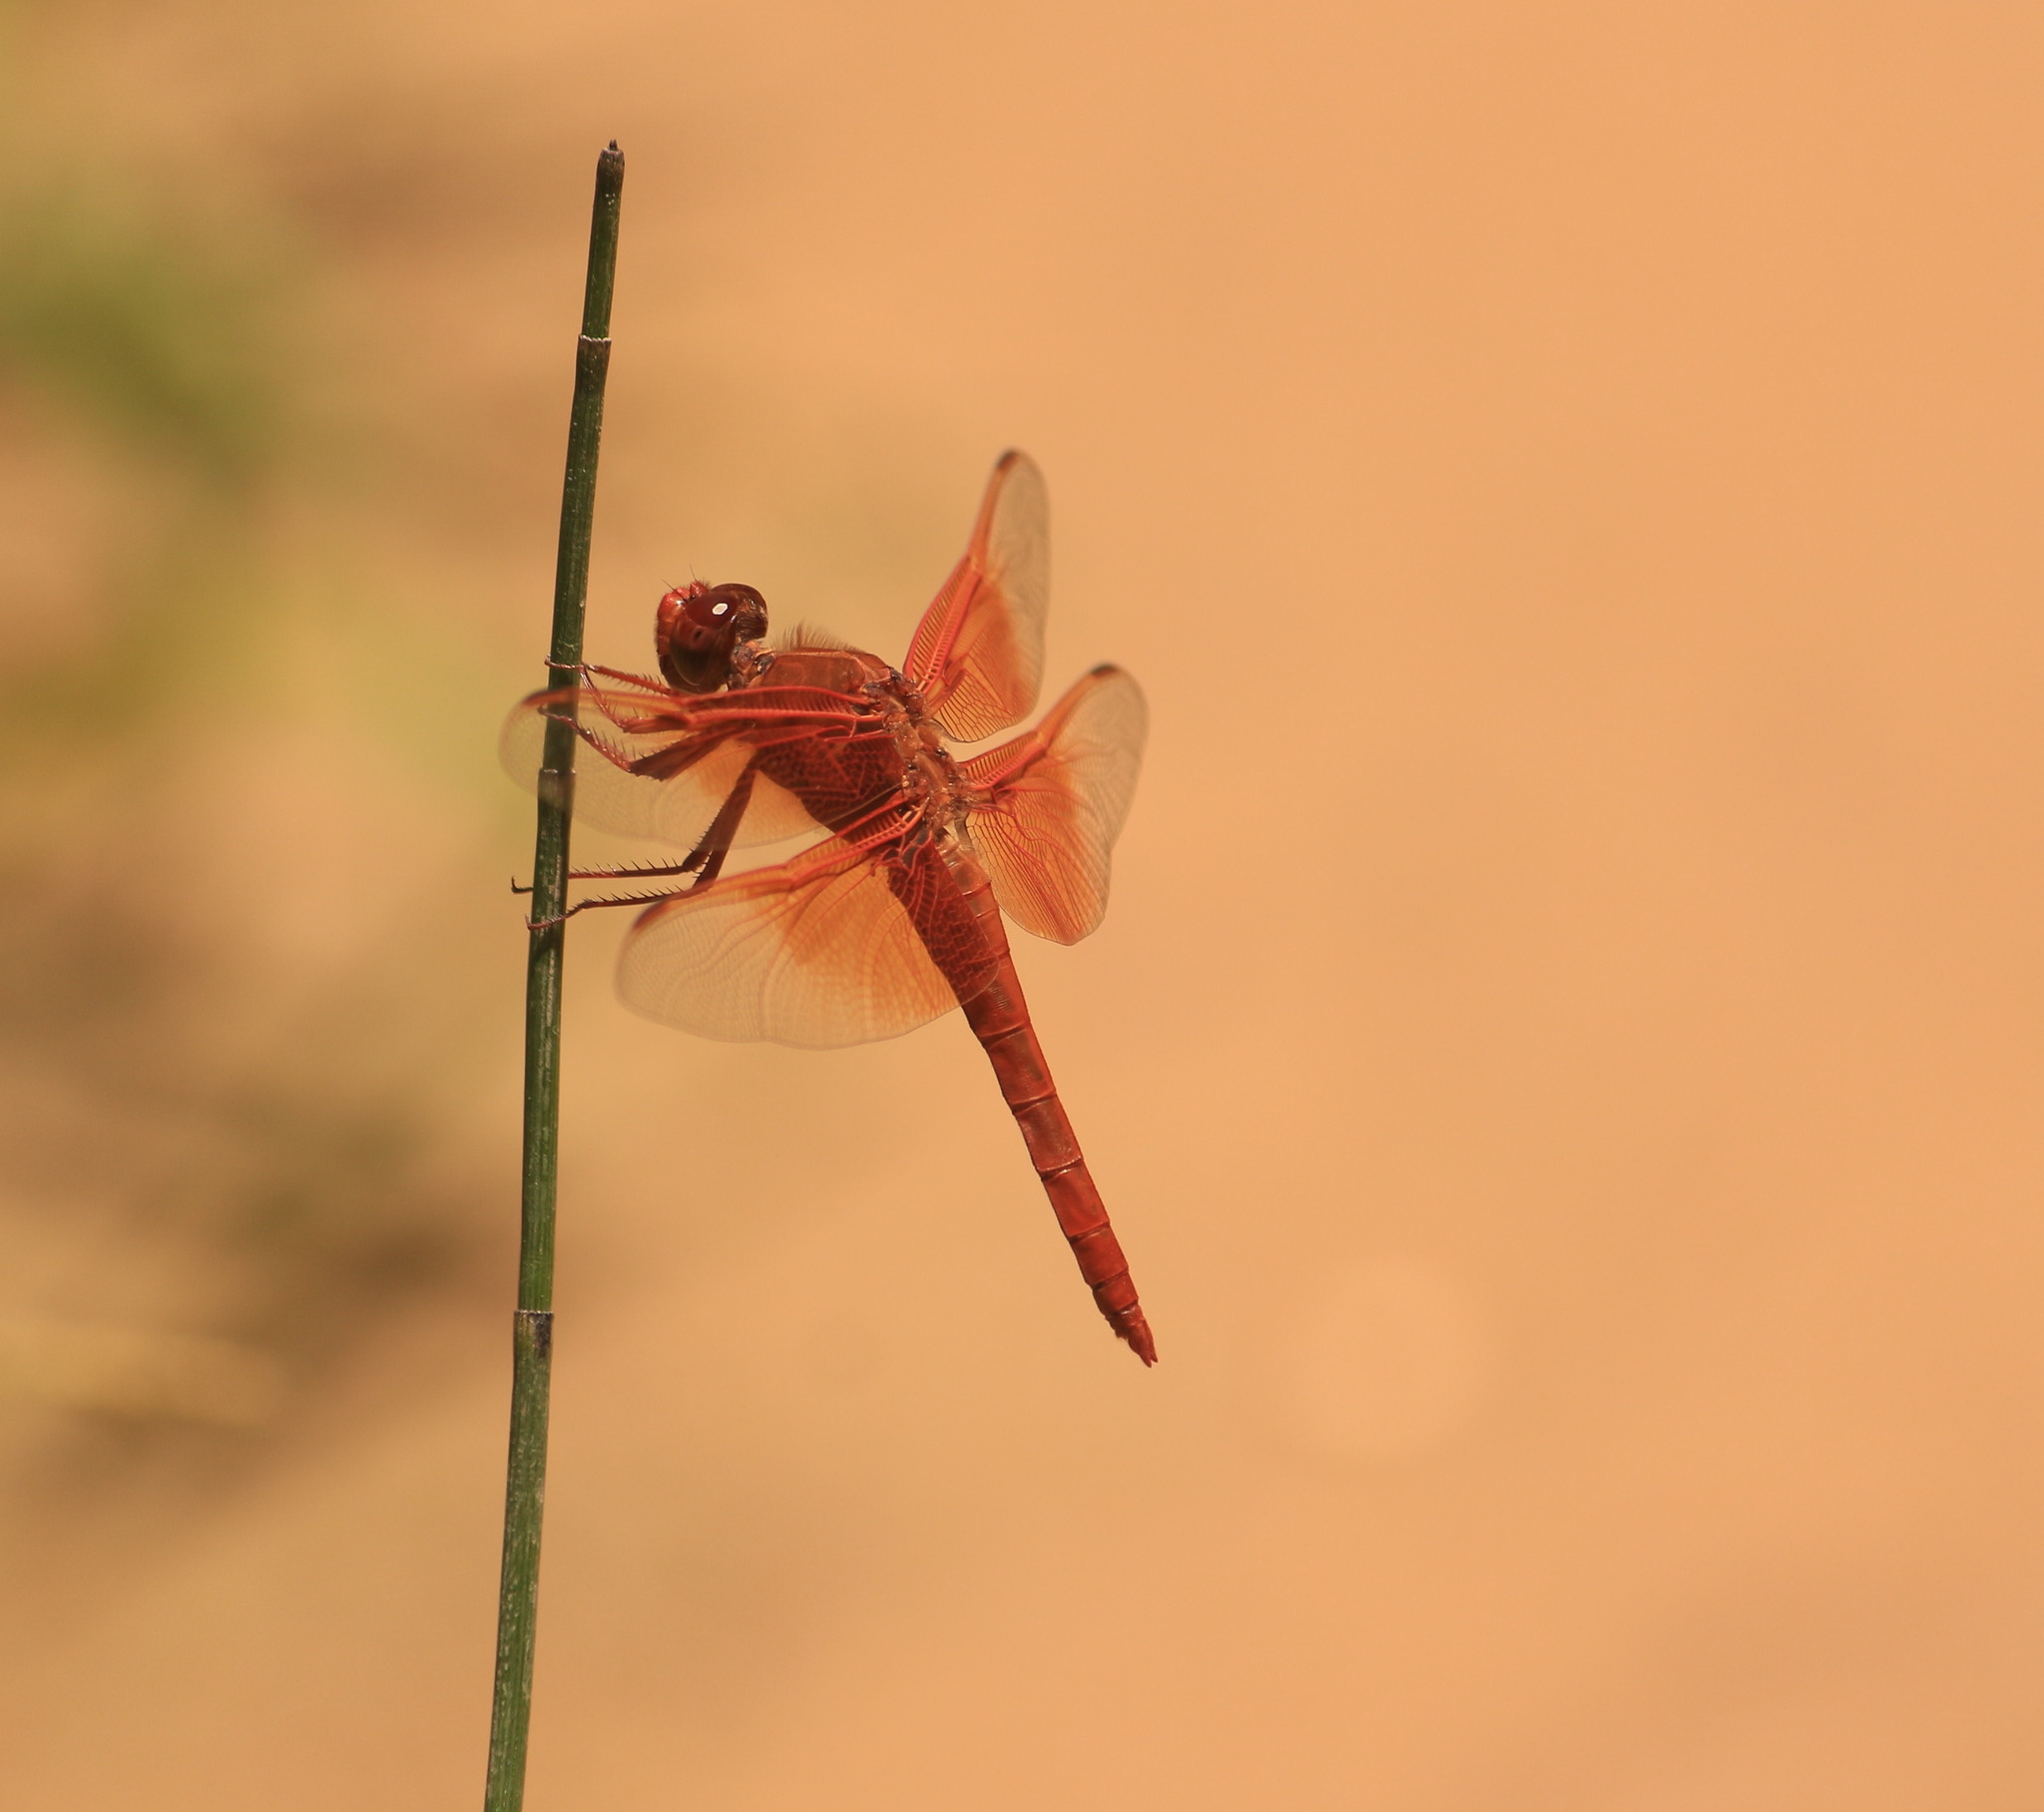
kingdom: Animalia
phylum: Arthropoda
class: Insecta
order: Odonata
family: Libellulidae
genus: Libellula
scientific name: Libellula saturata
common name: Flame skimmer
